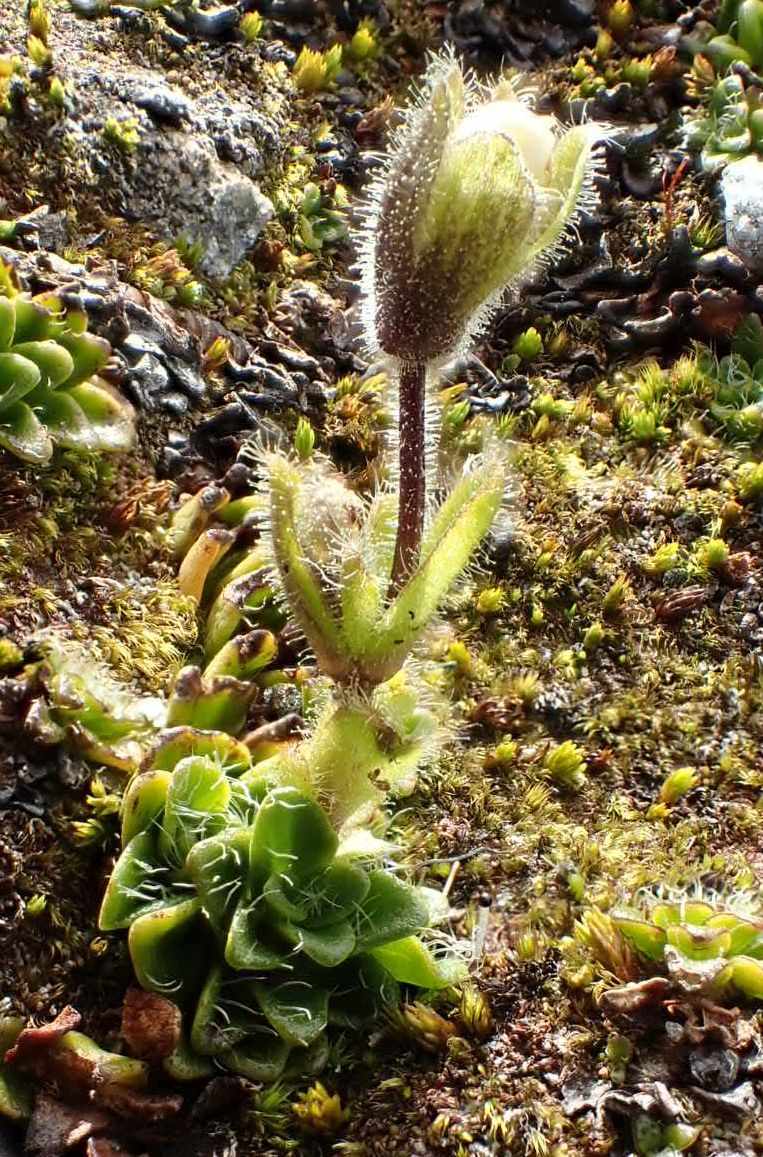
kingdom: Plantae
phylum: Tracheophyta
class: Magnoliopsida
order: Lamiales
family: Plantaginaceae
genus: Ourisia
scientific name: Ourisia glandulosa
